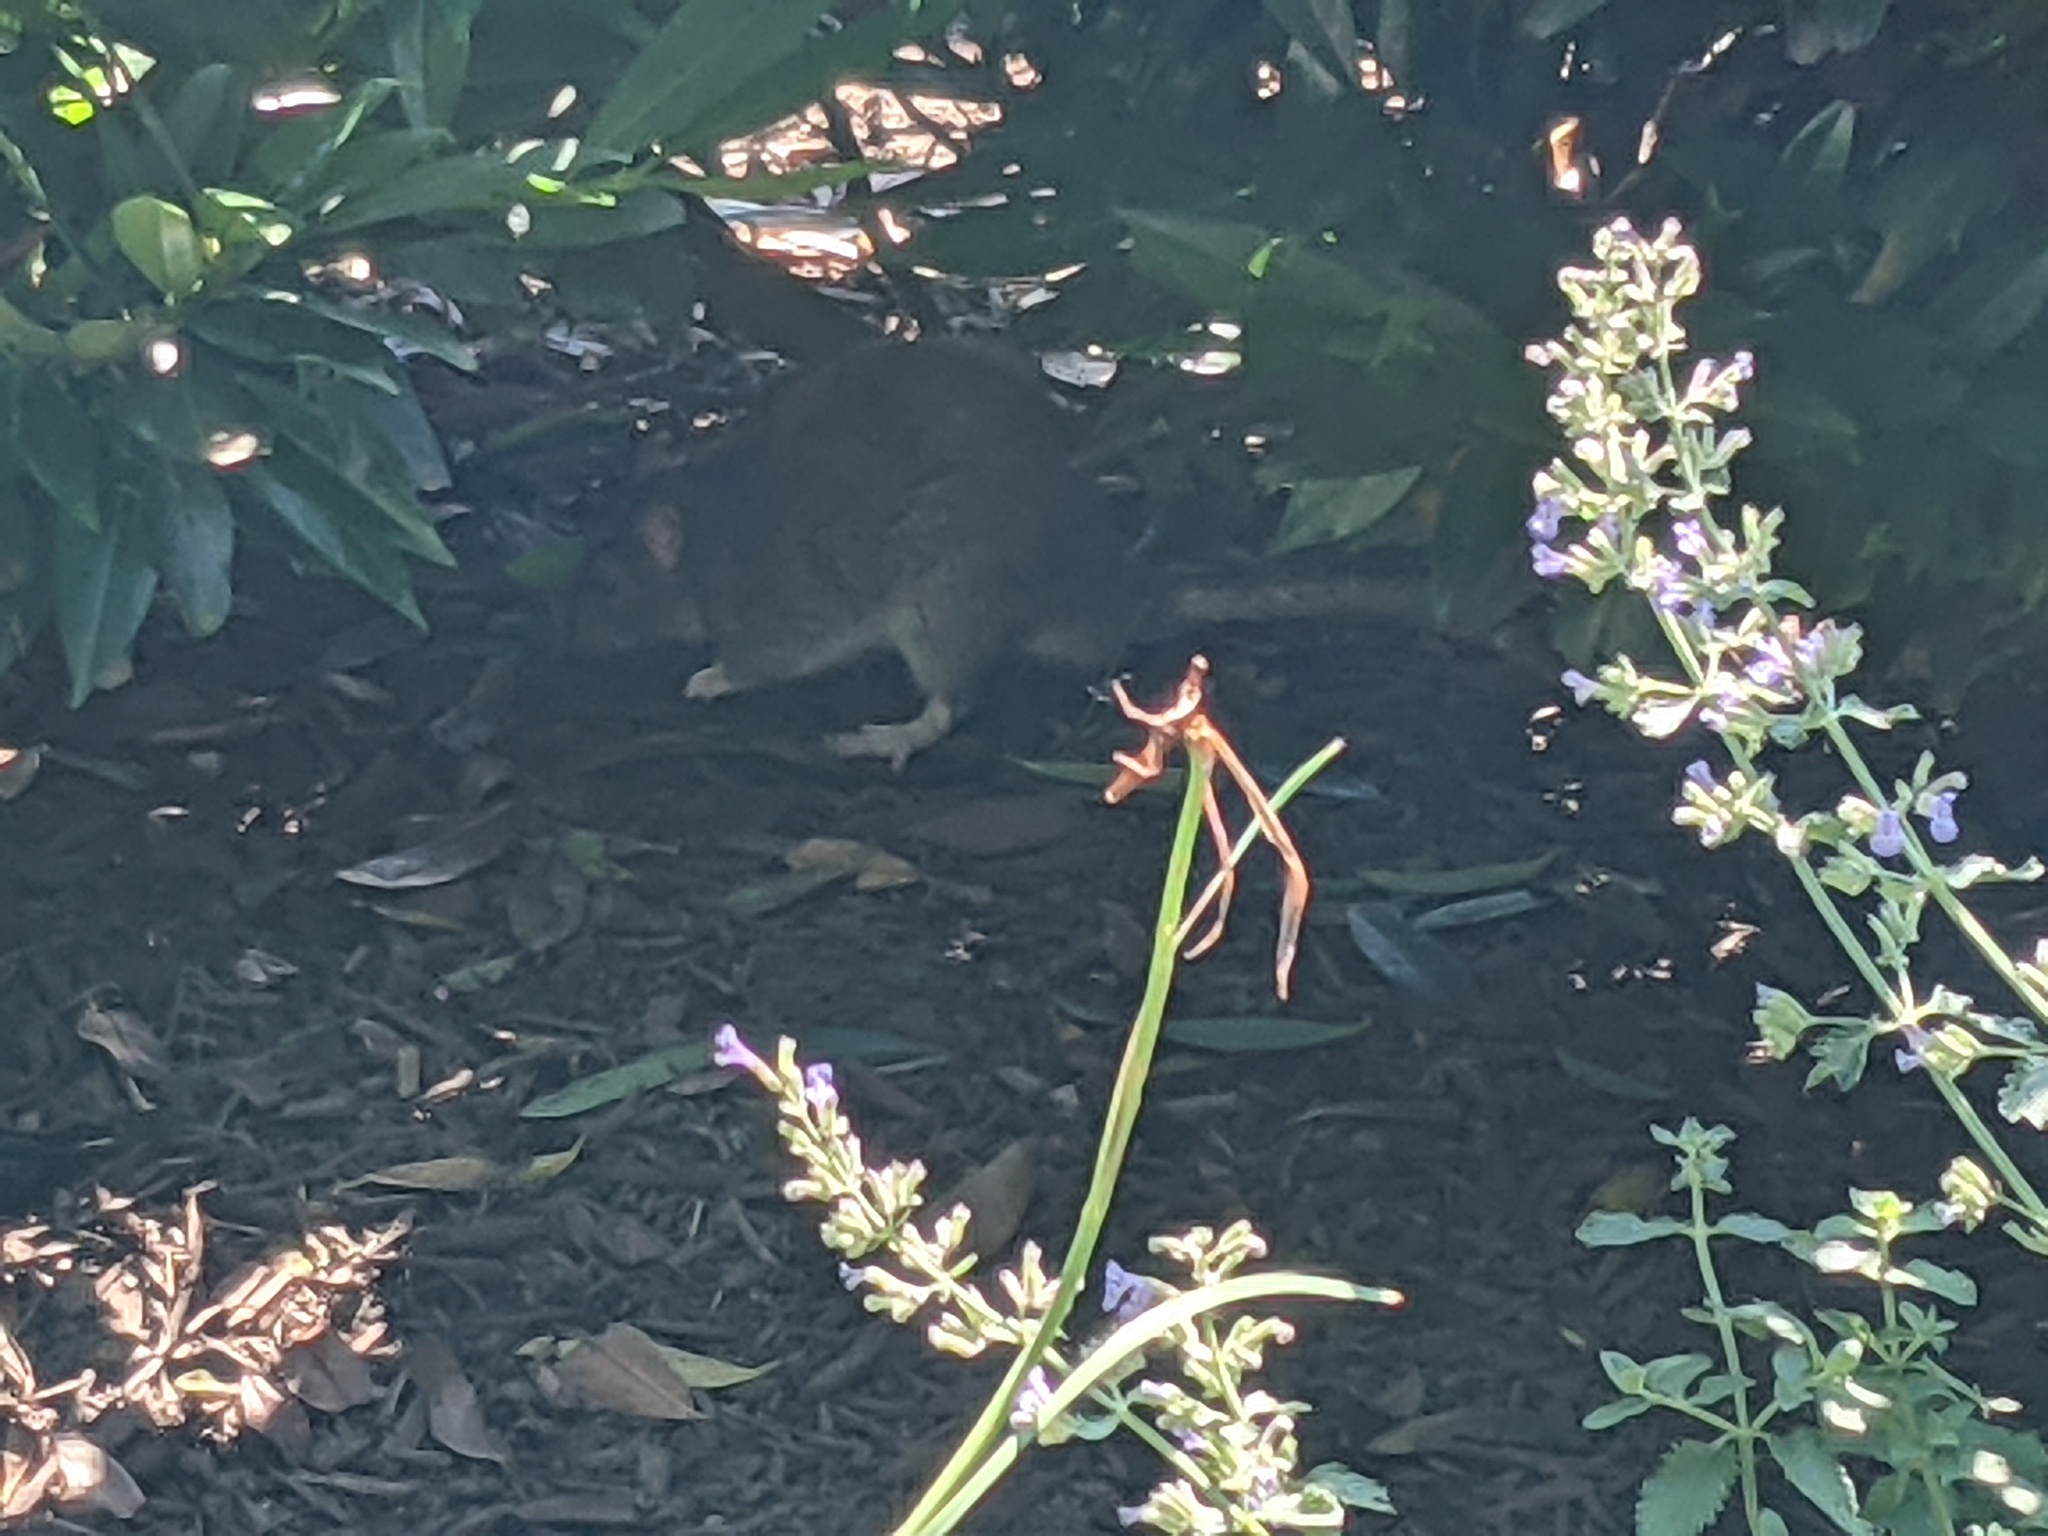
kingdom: Animalia
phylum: Chordata
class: Mammalia
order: Rodentia
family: Muridae
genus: Rattus
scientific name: Rattus norvegicus
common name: Brown rat
